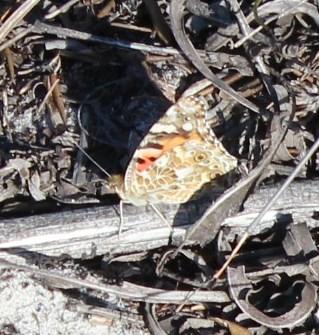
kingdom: Animalia
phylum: Arthropoda
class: Insecta
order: Lepidoptera
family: Nymphalidae
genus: Vanessa
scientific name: Vanessa cardui
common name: Painted lady
